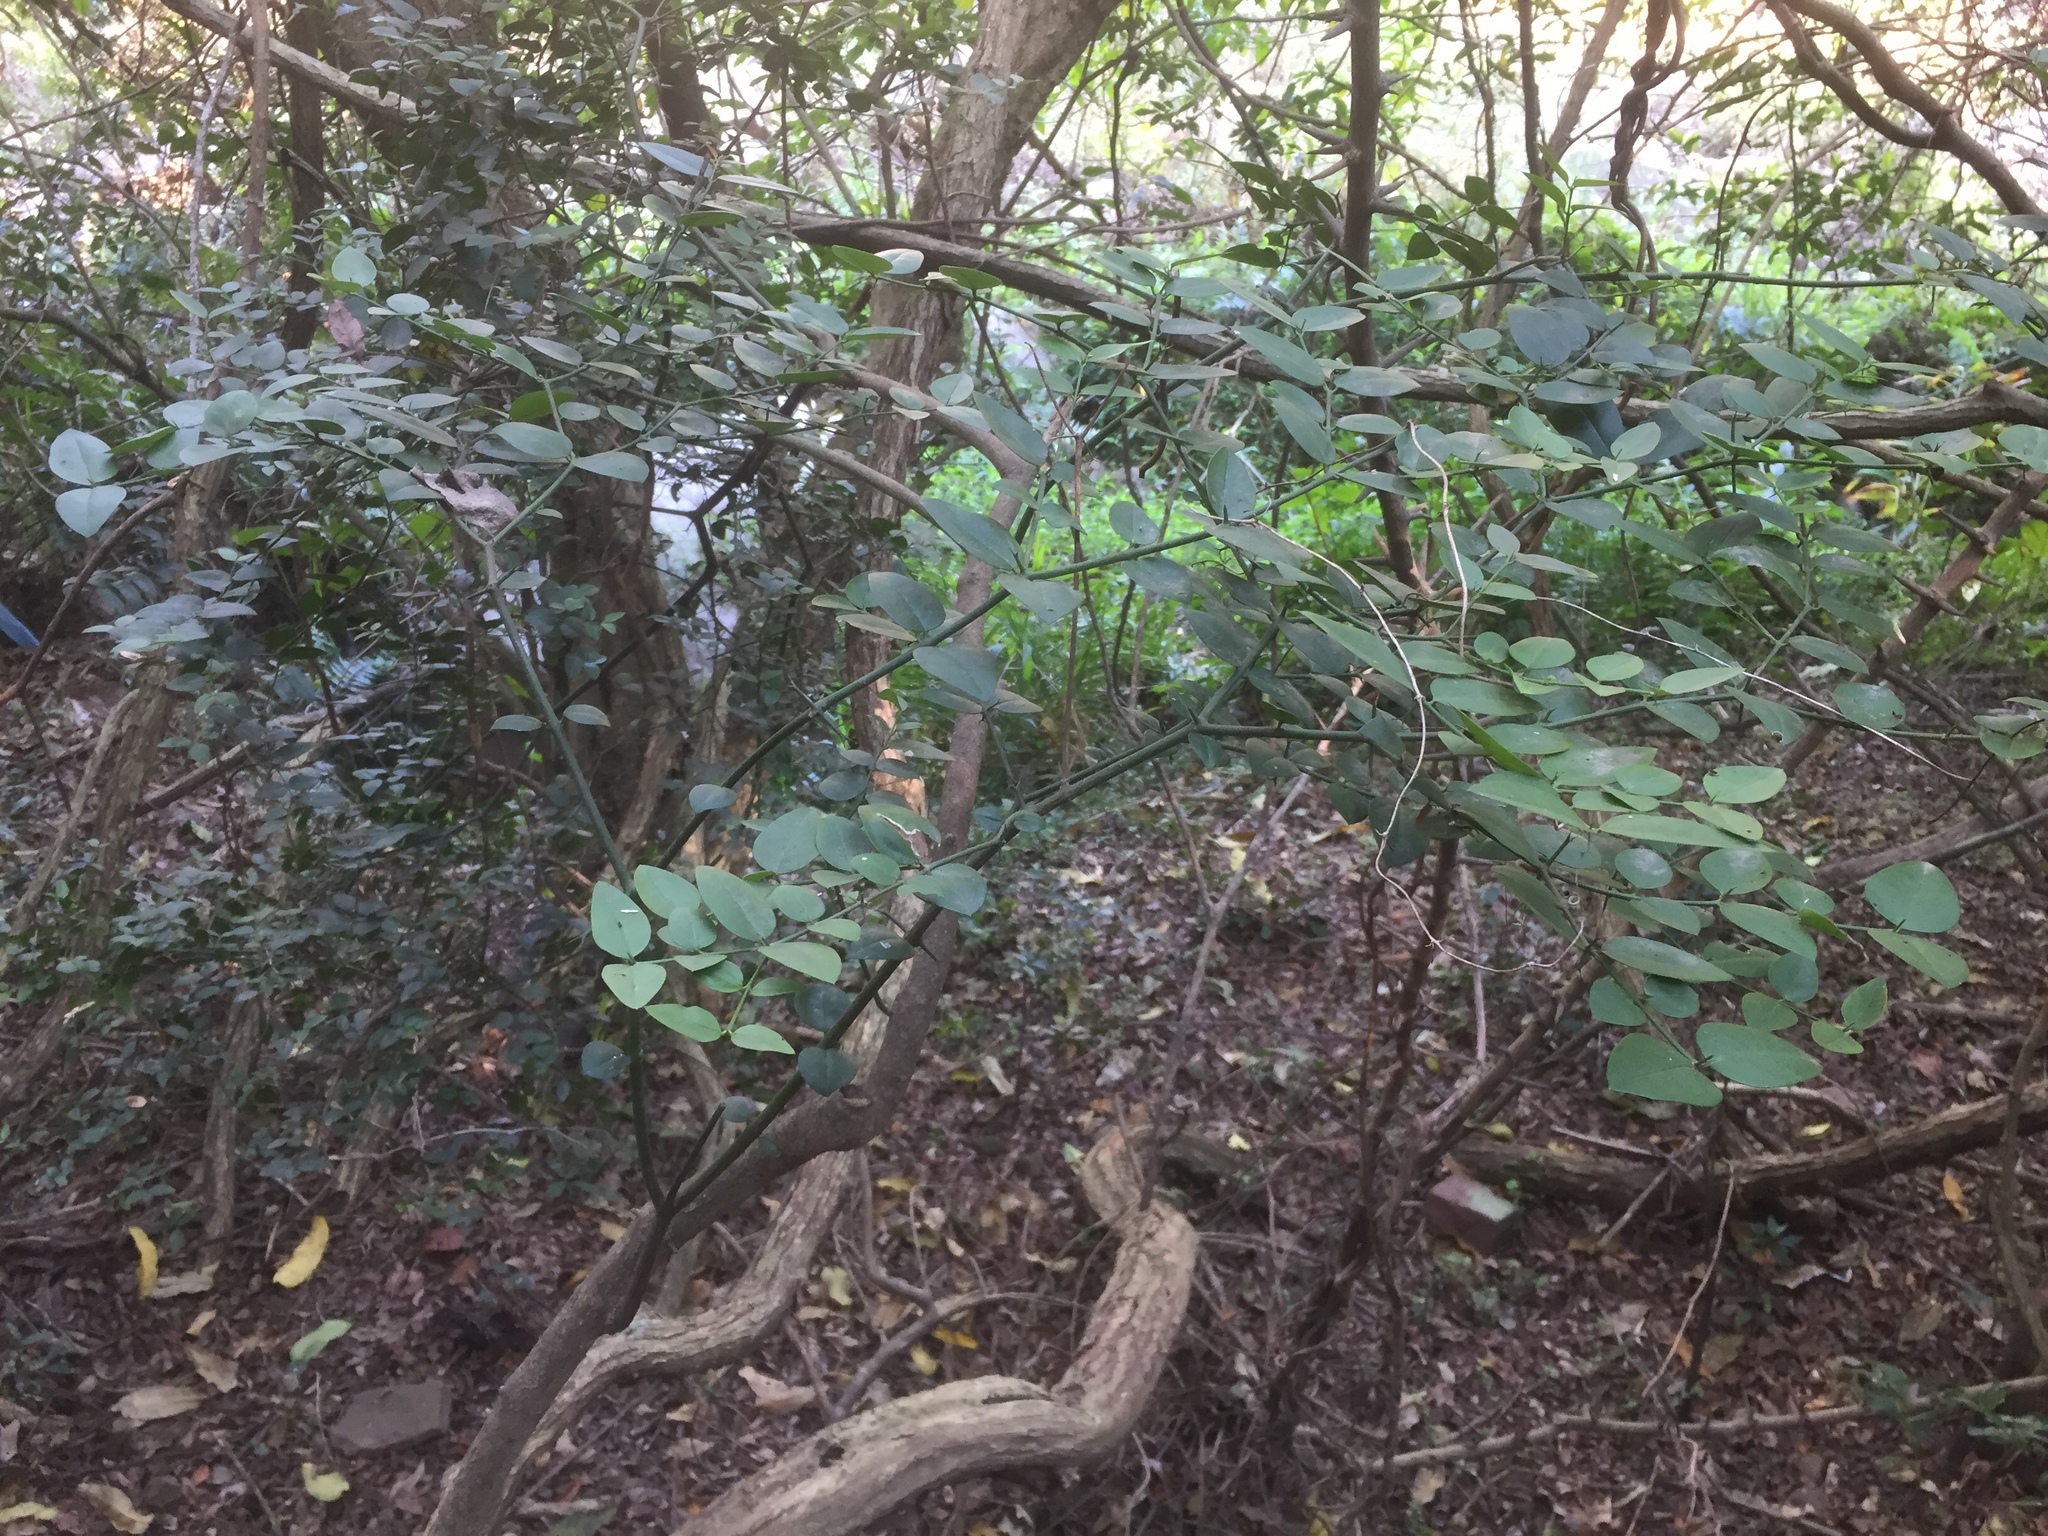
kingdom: Plantae
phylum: Tracheophyta
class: Magnoliopsida
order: Gentianales
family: Apocynaceae
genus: Carissa
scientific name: Carissa bispinosa
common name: Forest num-num
